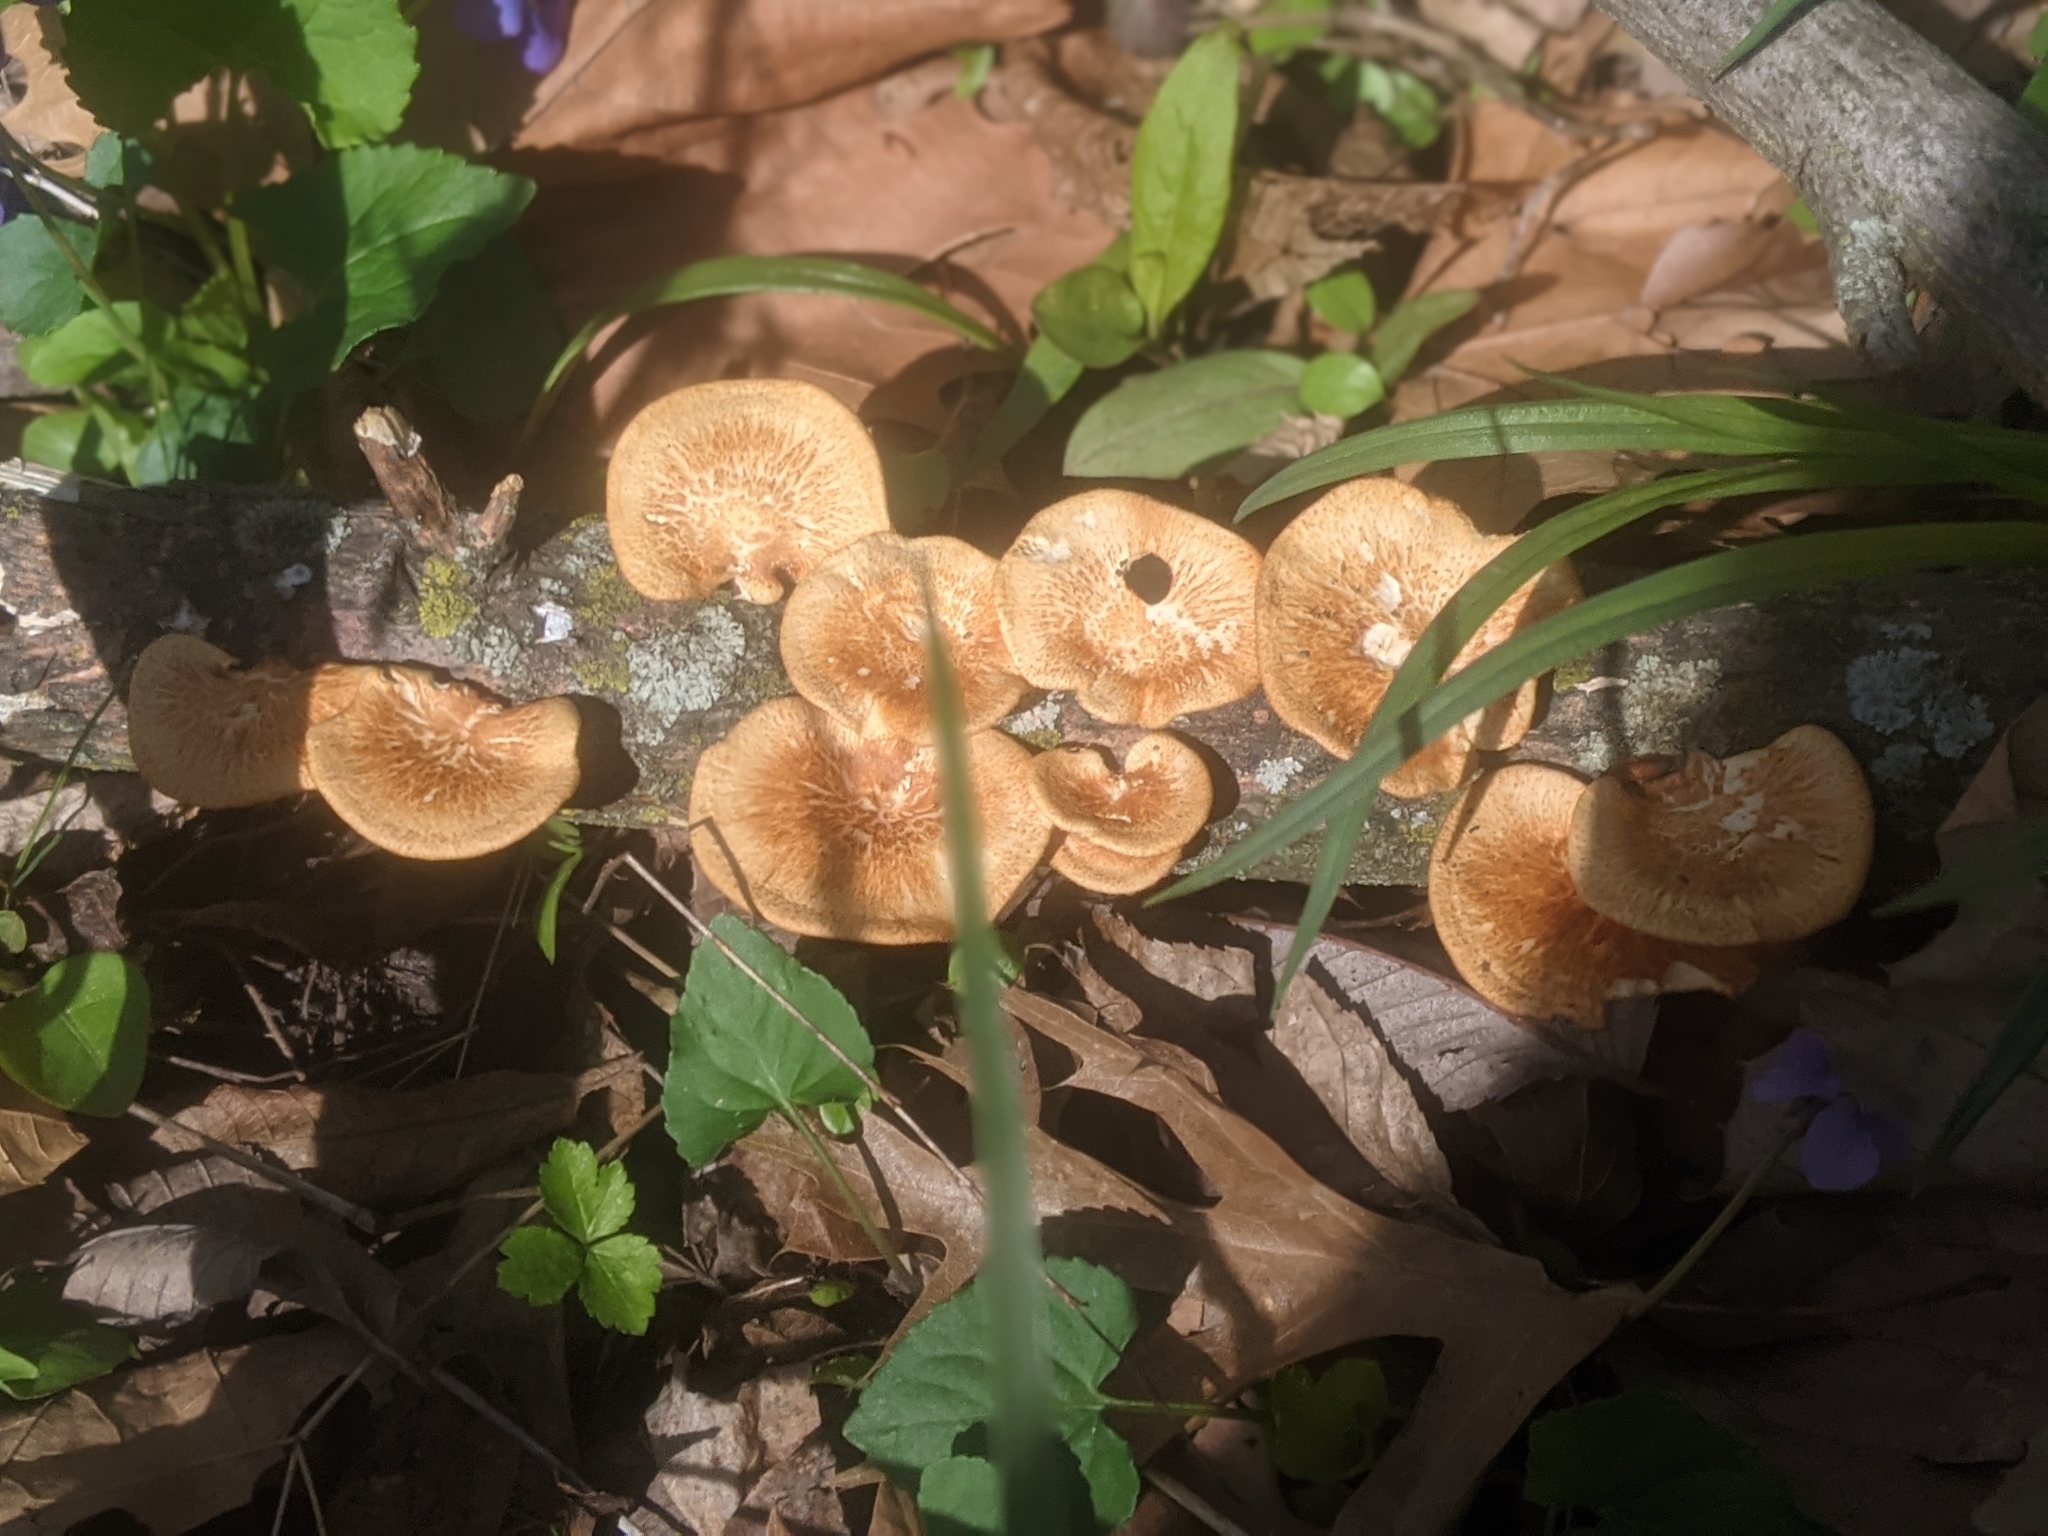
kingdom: Fungi
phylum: Basidiomycota
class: Agaricomycetes
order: Polyporales
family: Polyporaceae
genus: Neofavolus
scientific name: Neofavolus alveolaris
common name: Hexagonal-pored polypore
